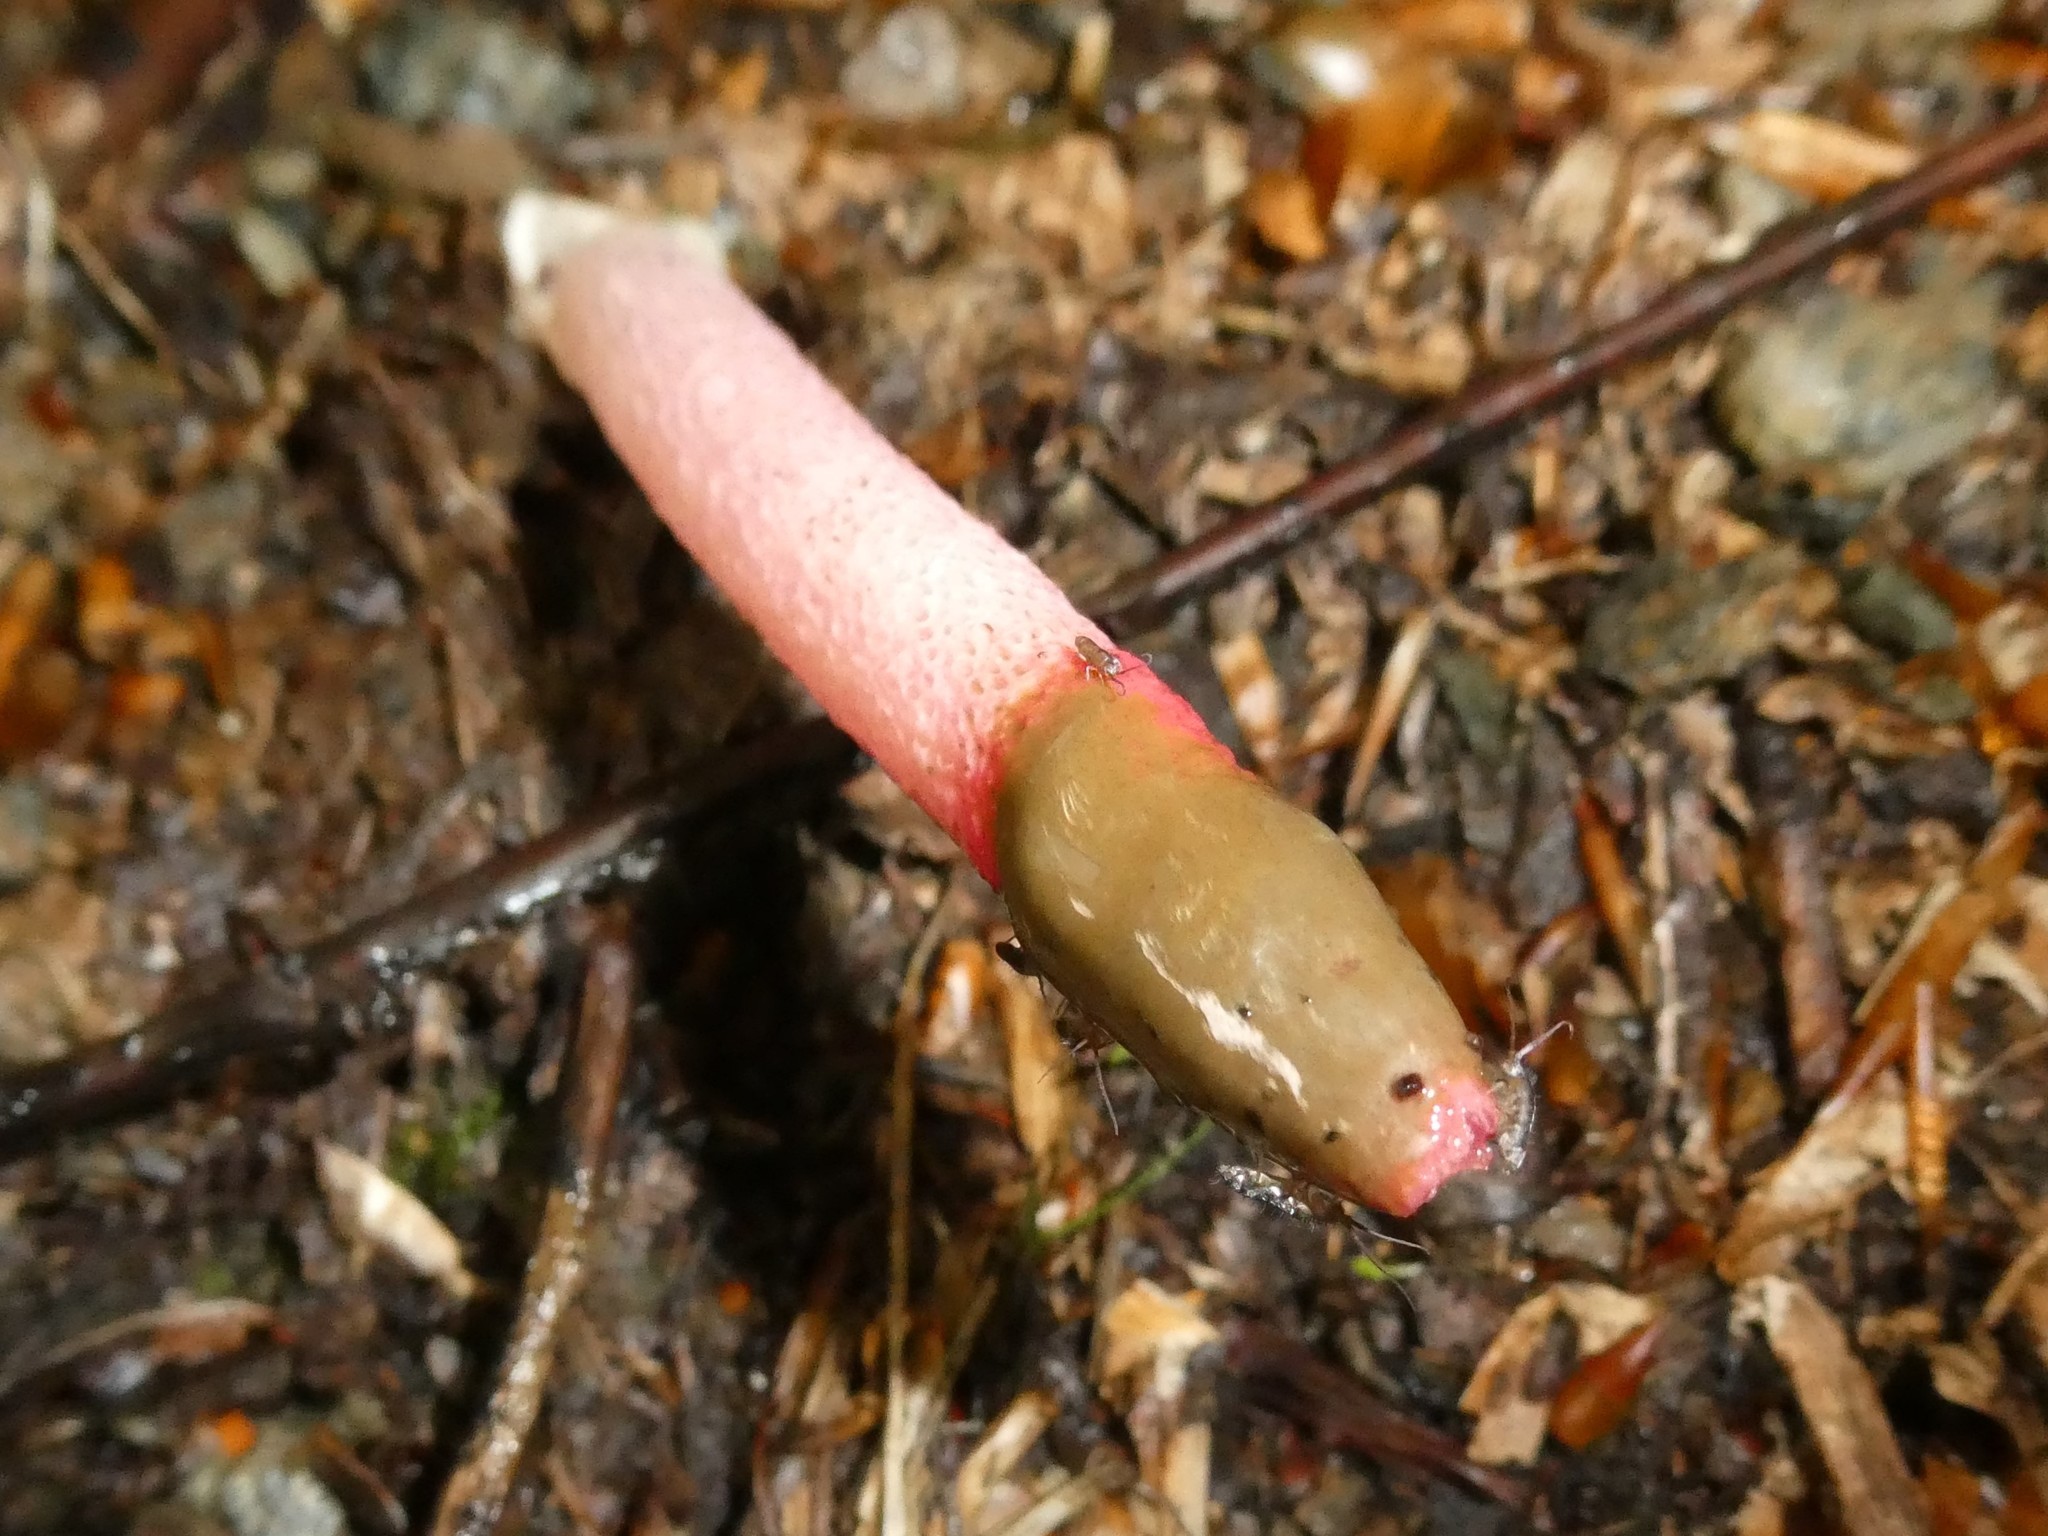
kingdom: Fungi
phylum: Basidiomycota
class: Agaricomycetes
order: Phallales
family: Phallaceae
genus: Mutinus
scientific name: Mutinus ravenelii
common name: Red stinkhorn
